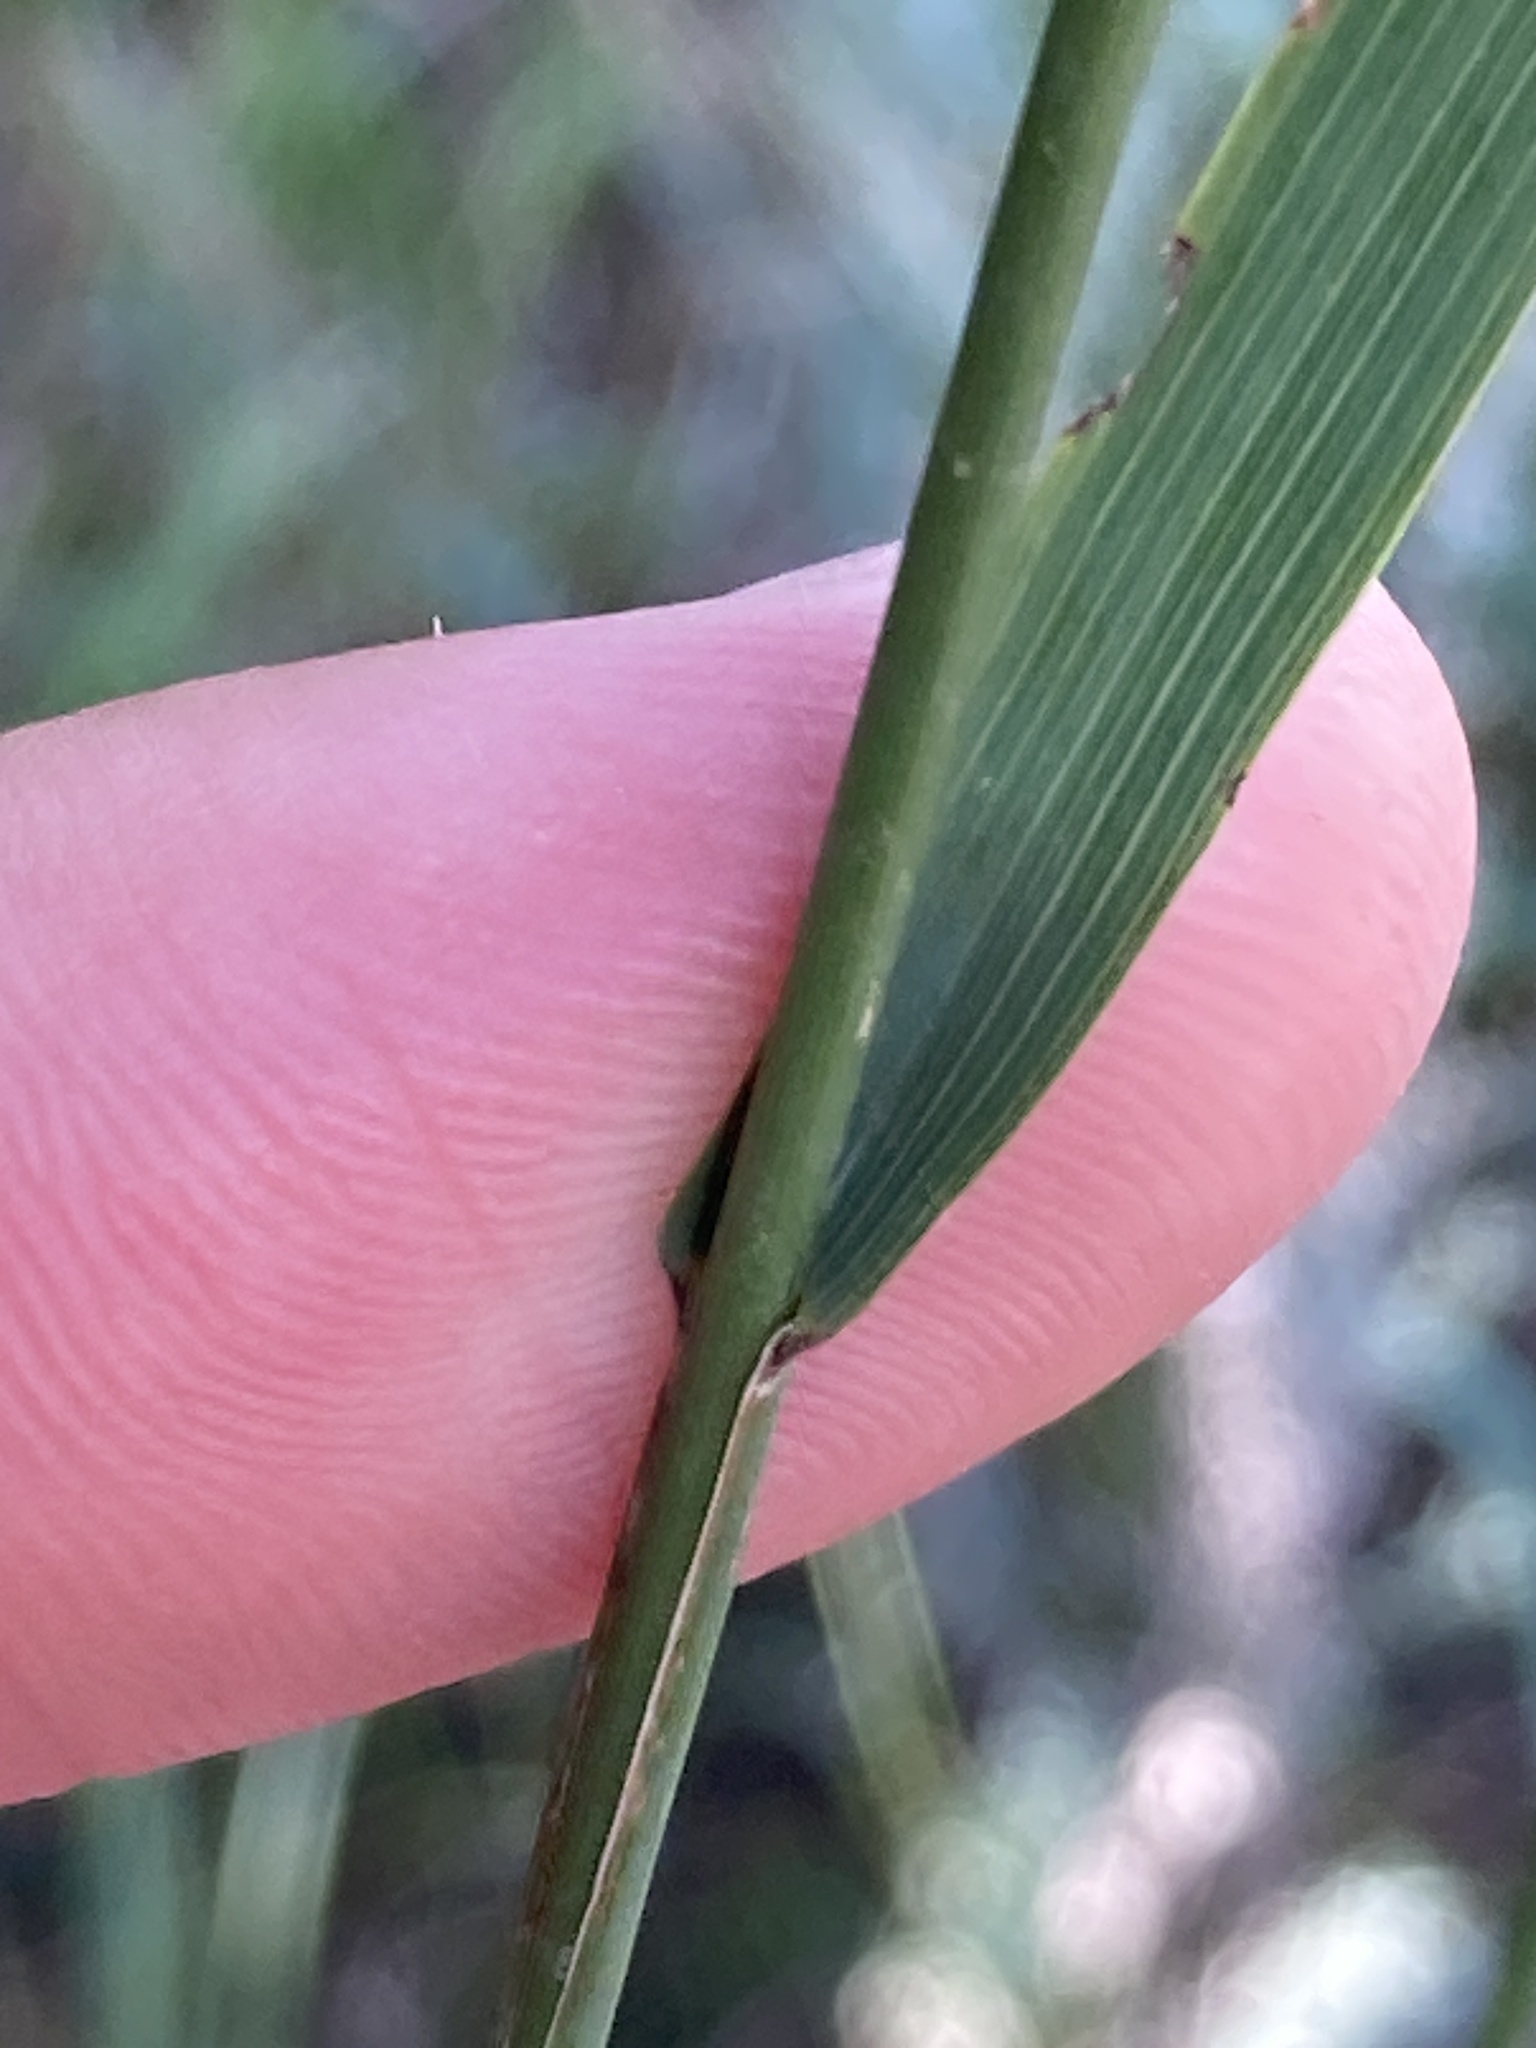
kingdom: Plantae
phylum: Tracheophyta
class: Liliopsida
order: Poales
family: Poaceae
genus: Bromus
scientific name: Bromus inermis
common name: Smooth brome
